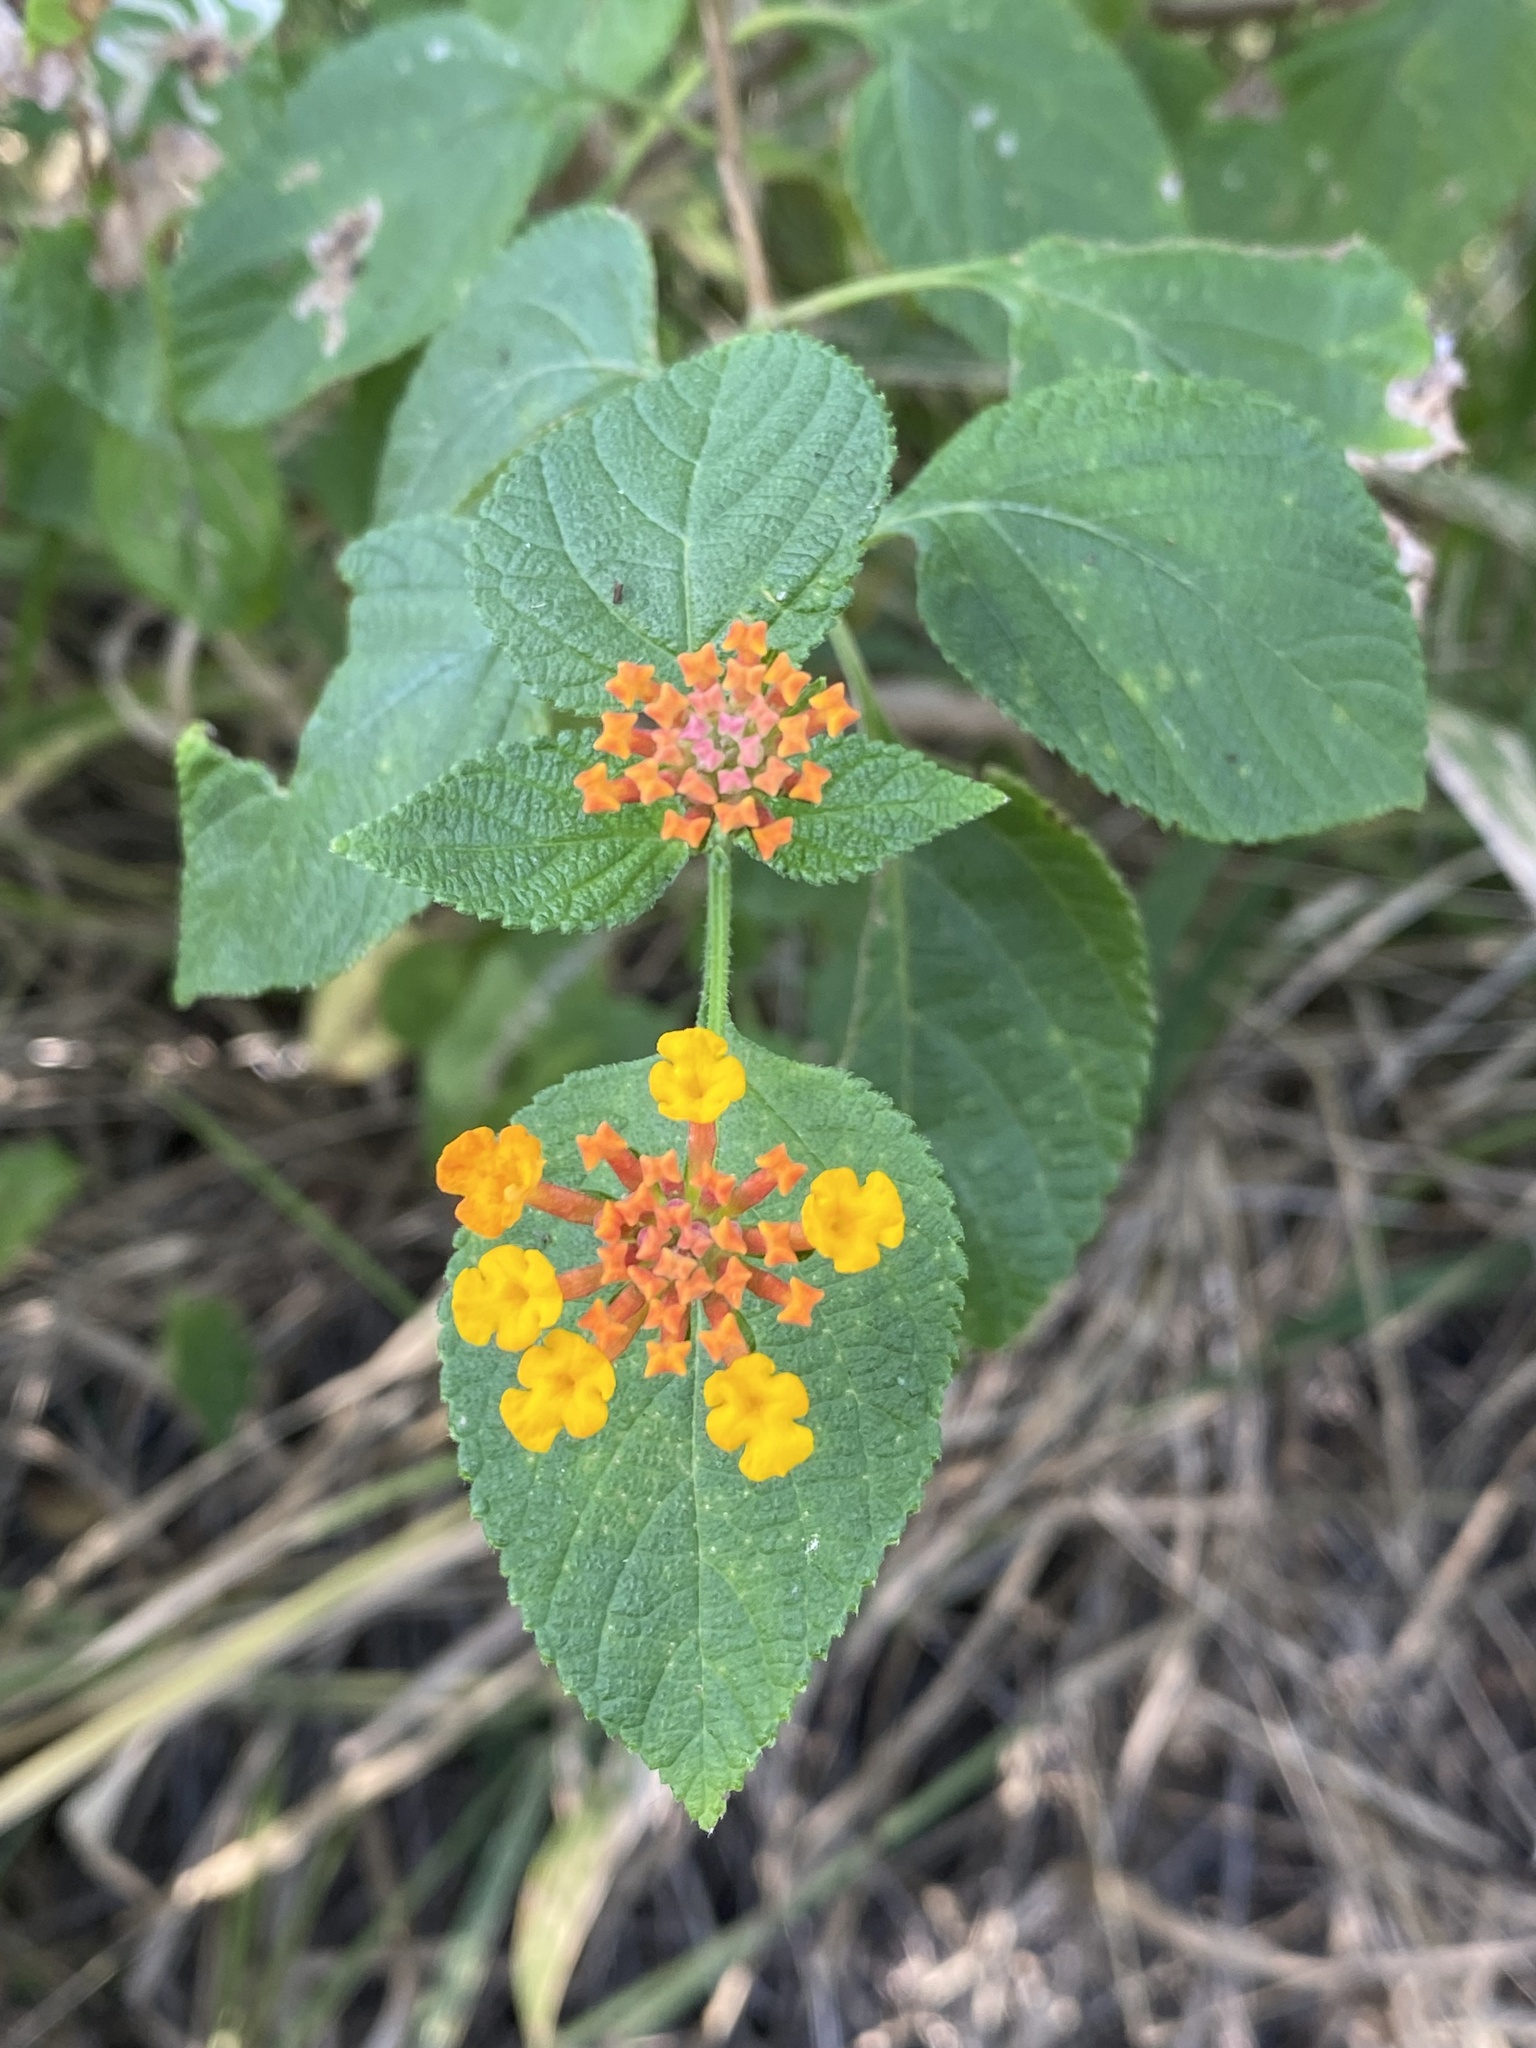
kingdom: Plantae
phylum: Tracheophyta
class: Magnoliopsida
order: Lamiales
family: Verbenaceae
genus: Lantana
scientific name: Lantana camara
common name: Lantana
